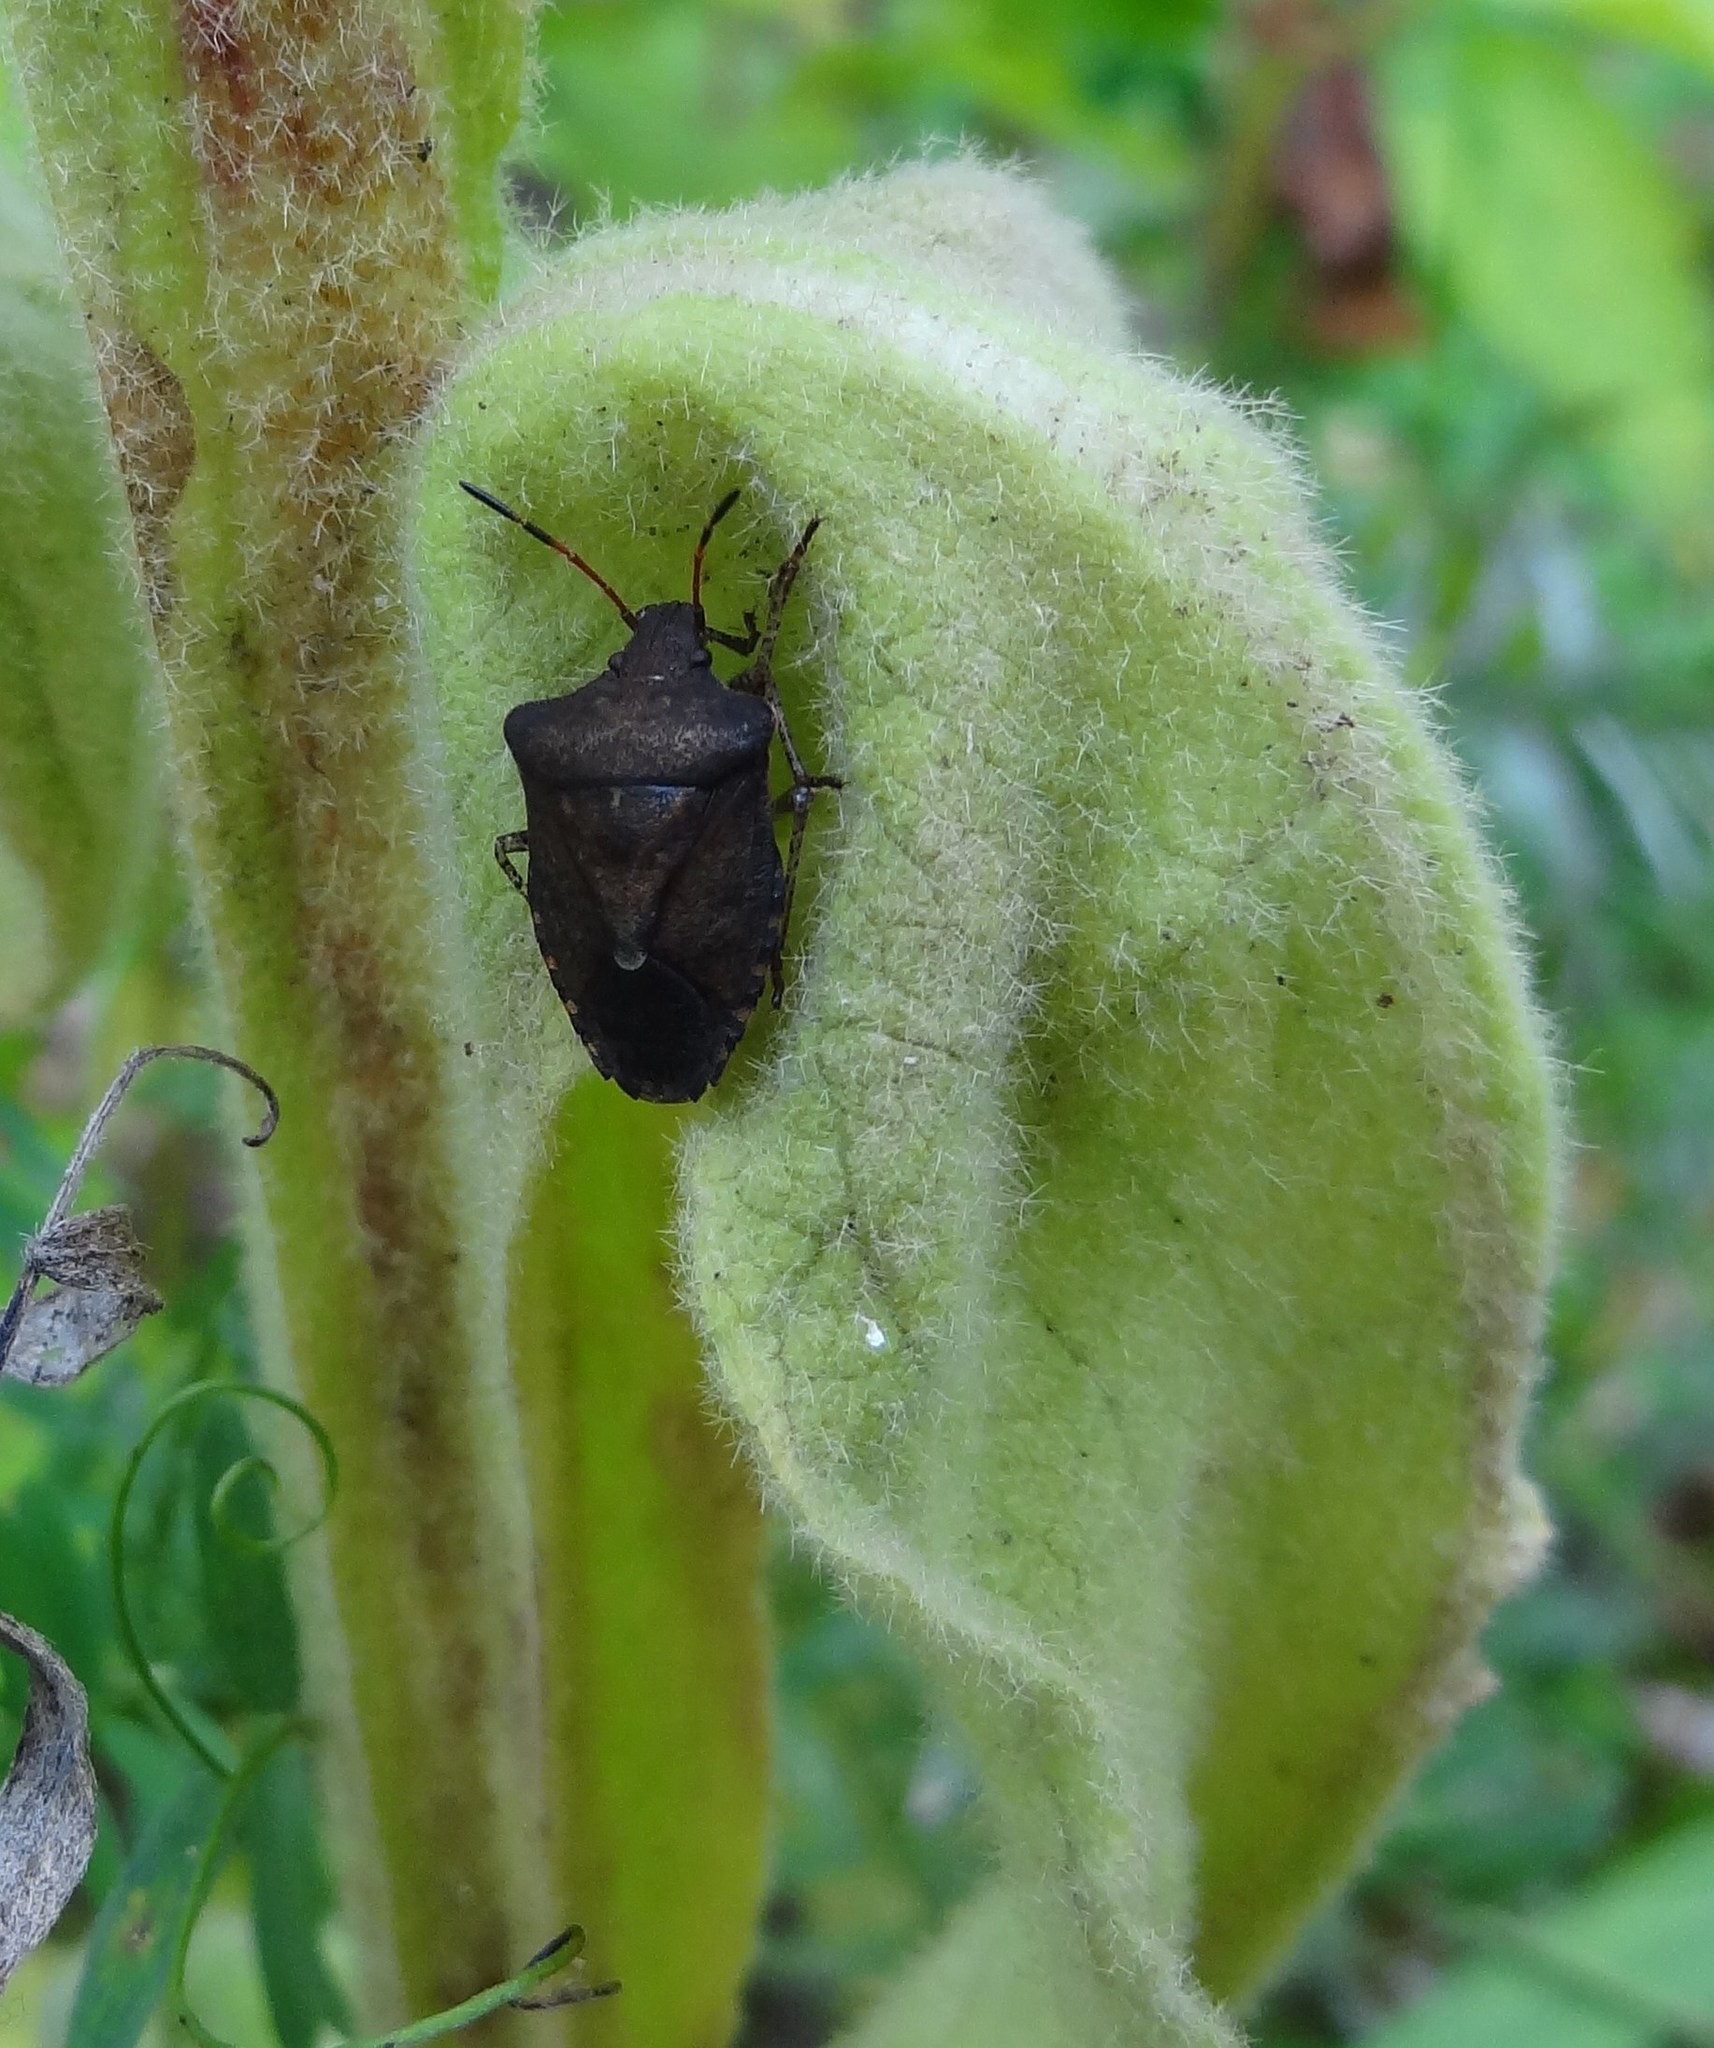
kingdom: Animalia
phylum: Arthropoda
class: Insecta
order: Hemiptera
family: Pentatomidae
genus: Euschistus
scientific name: Euschistus tristigmus
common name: Dusky stink bug
